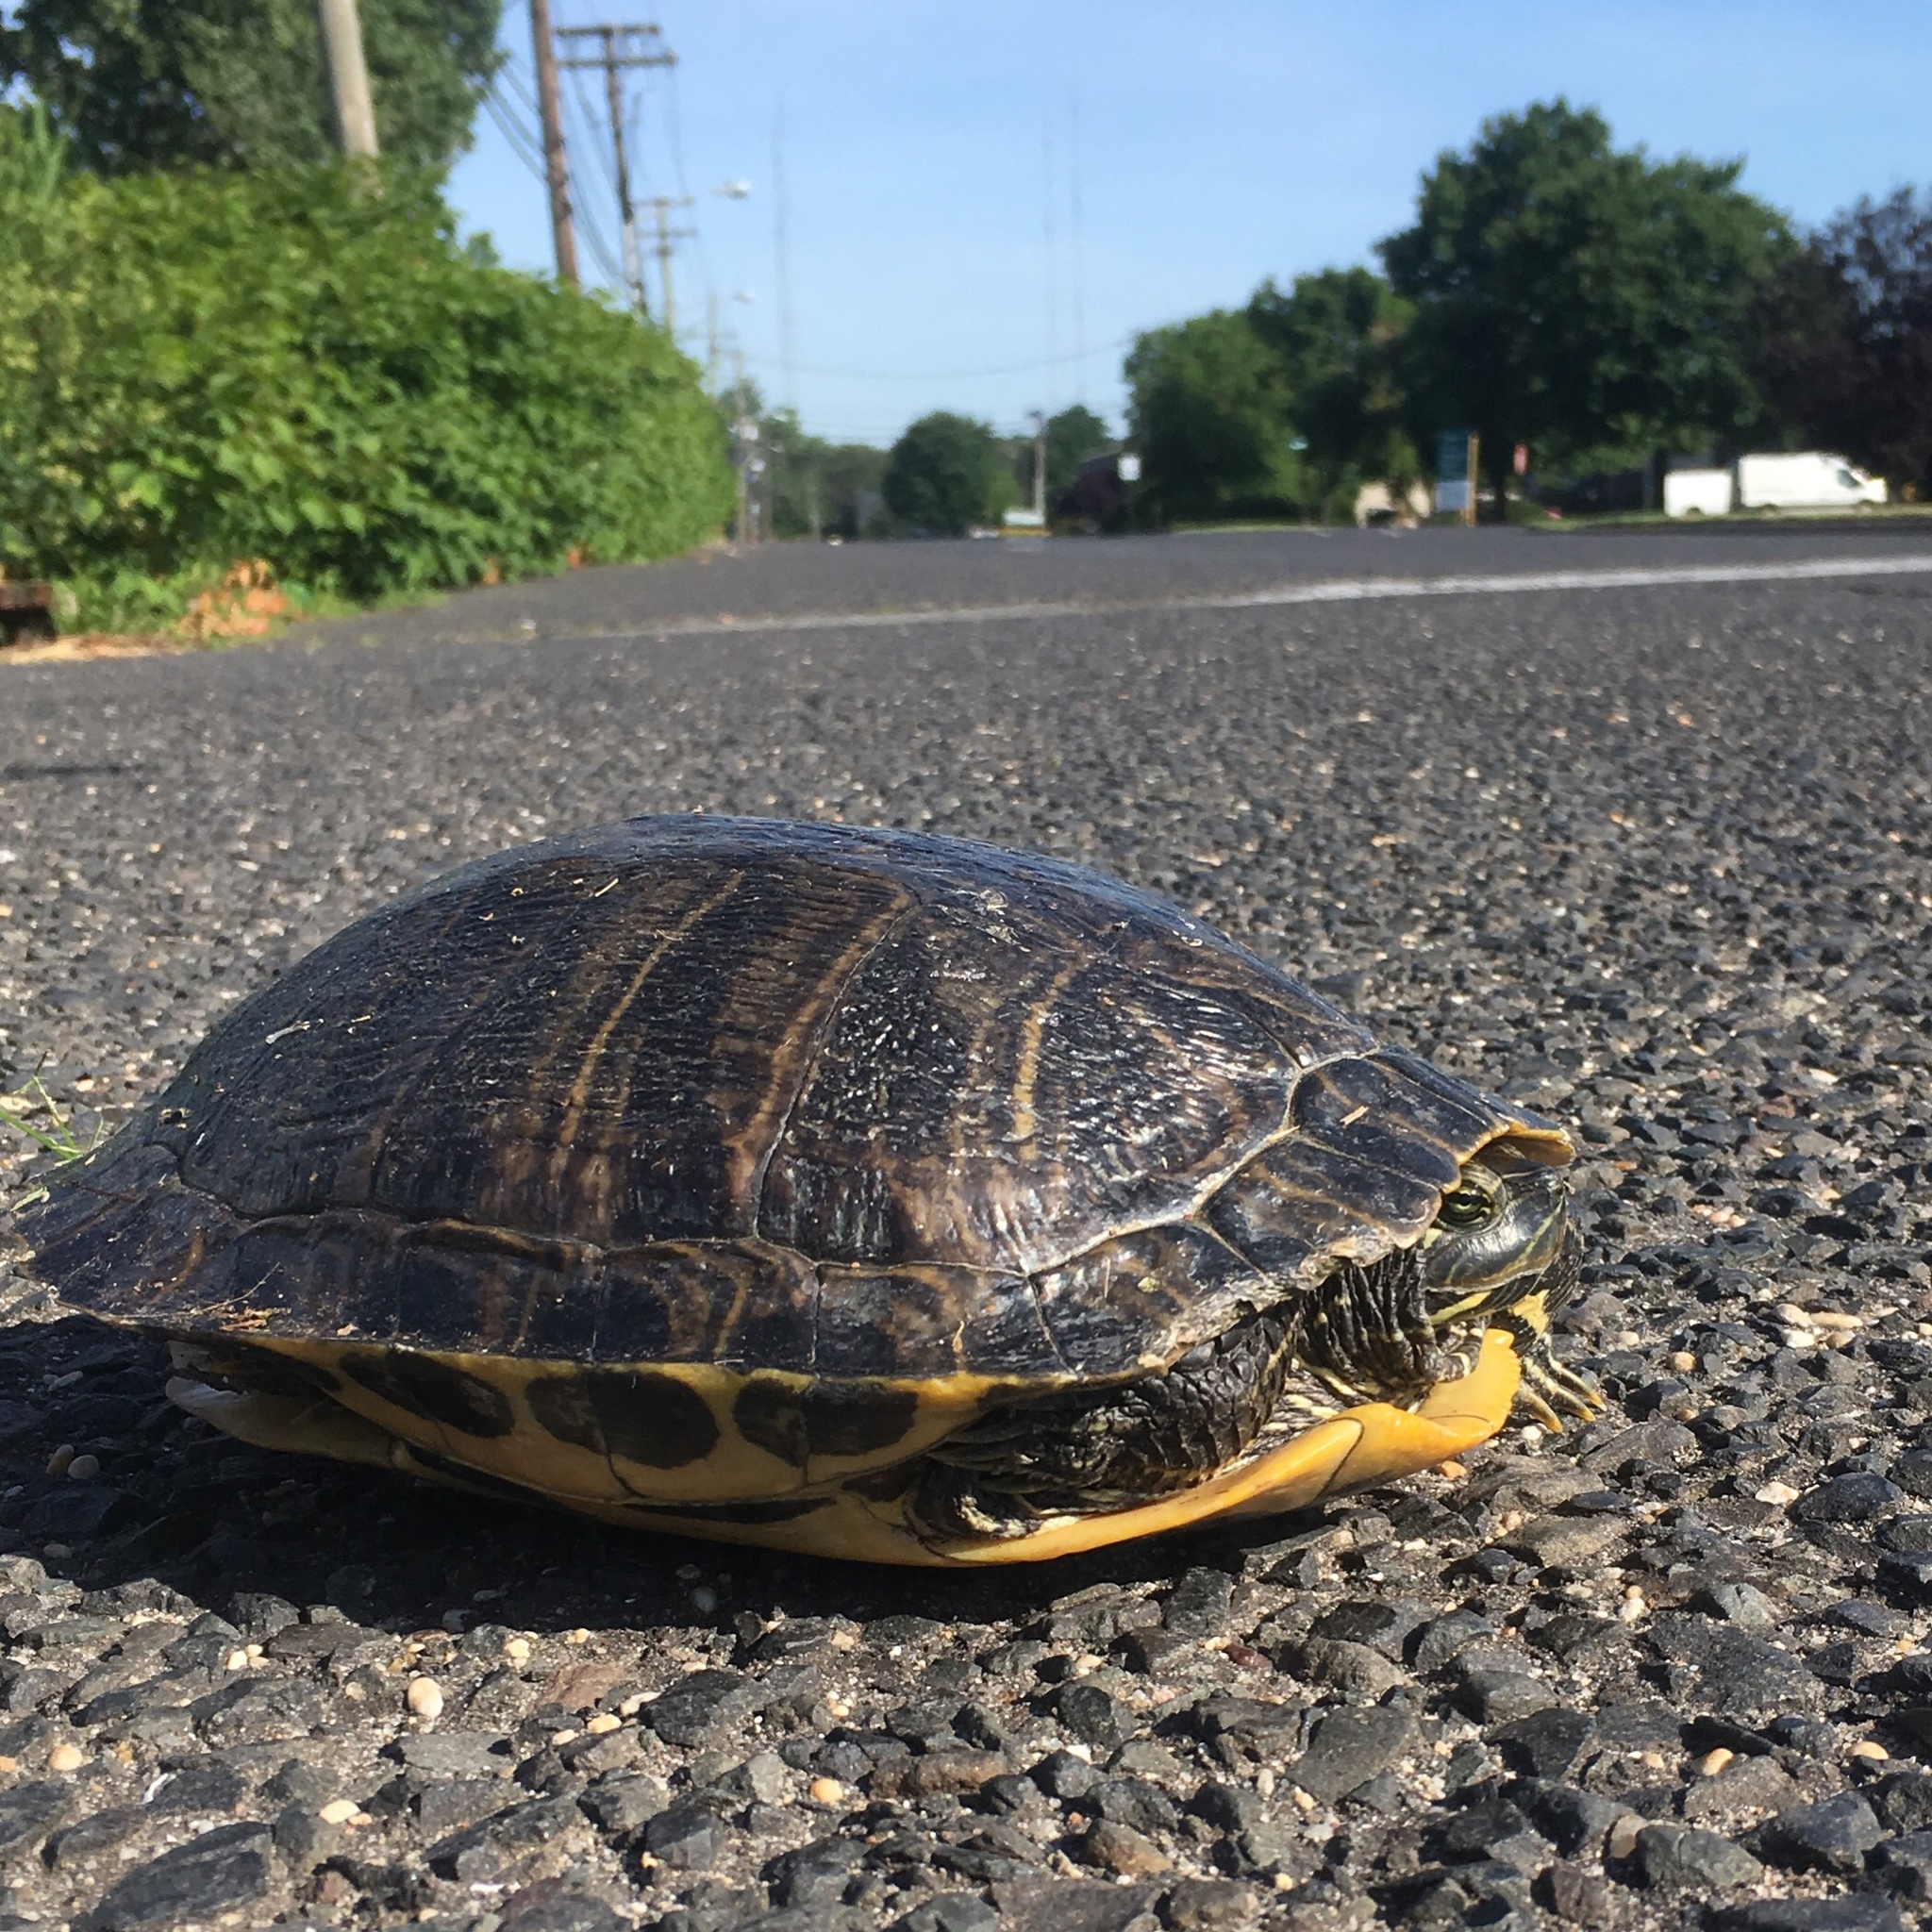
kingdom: Animalia
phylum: Chordata
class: Testudines
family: Emydidae
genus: Trachemys
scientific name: Trachemys scripta
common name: Slider
